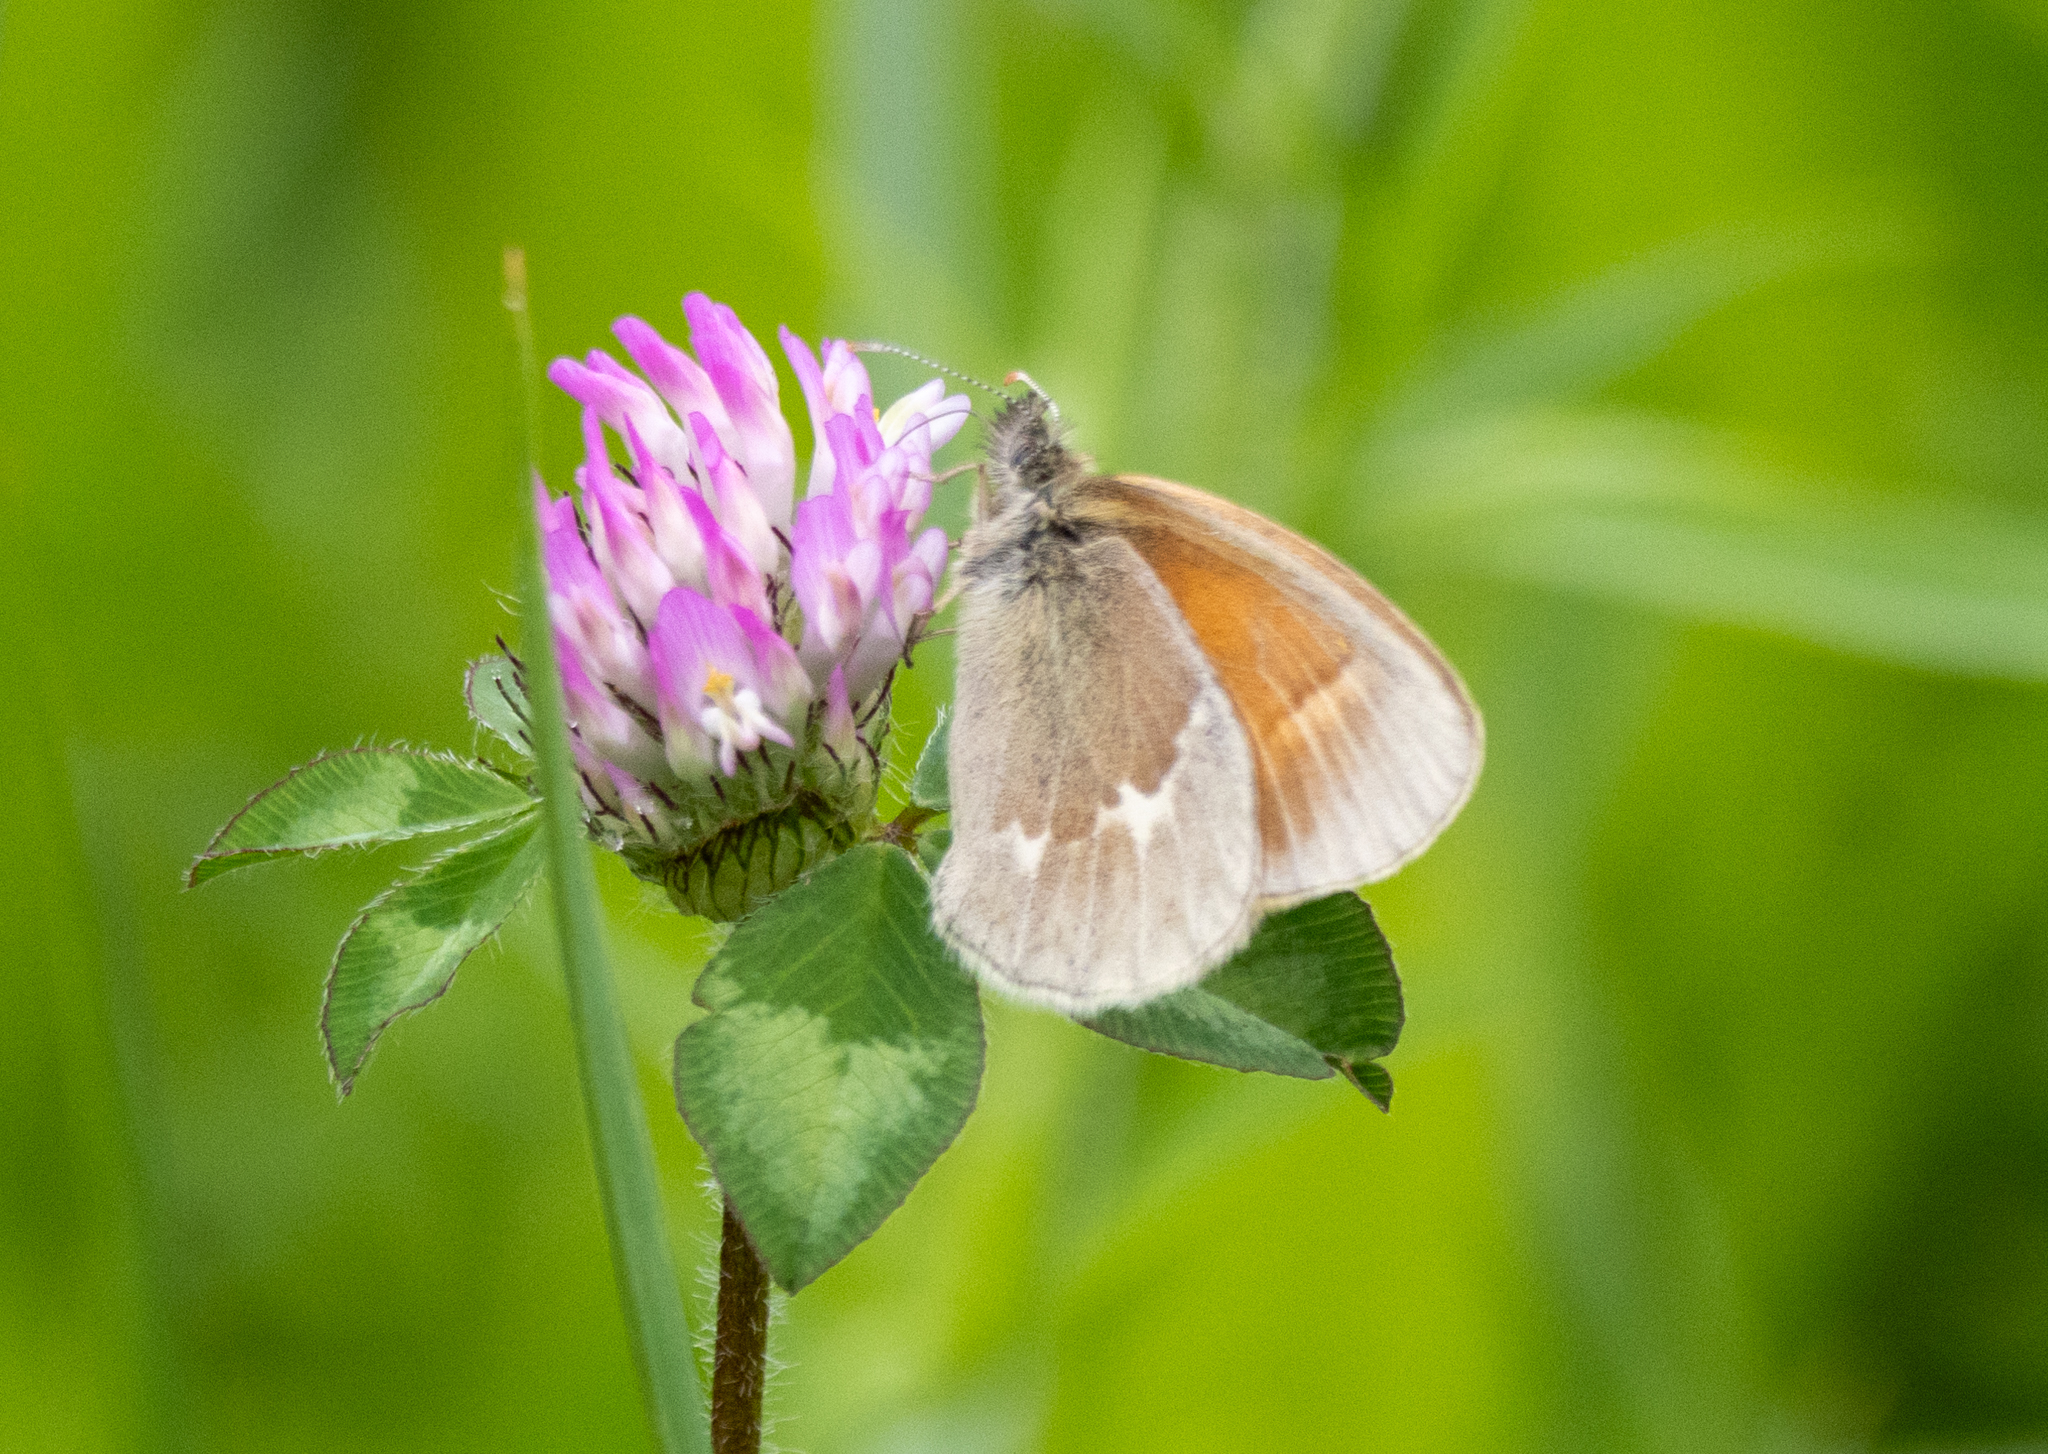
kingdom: Animalia
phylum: Arthropoda
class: Insecta
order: Lepidoptera
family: Nymphalidae
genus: Coenonympha
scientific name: Coenonympha california
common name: Common ringlet
